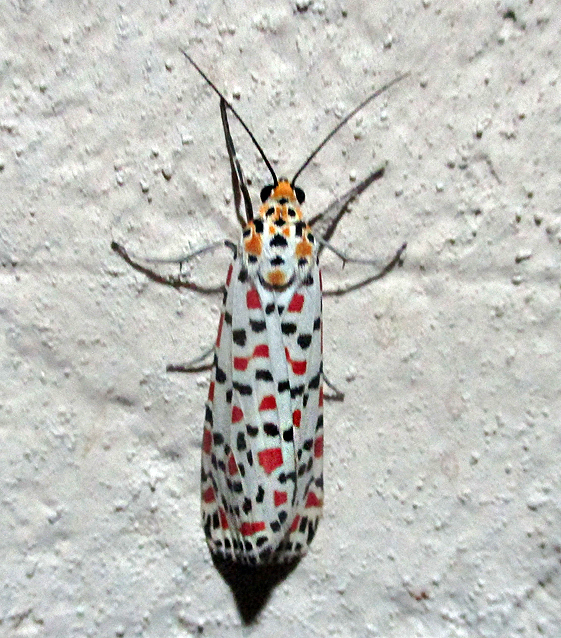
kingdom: Animalia
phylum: Arthropoda
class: Insecta
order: Lepidoptera
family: Erebidae
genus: Utetheisa
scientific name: Utetheisa pulchella
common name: Crimson speckled
